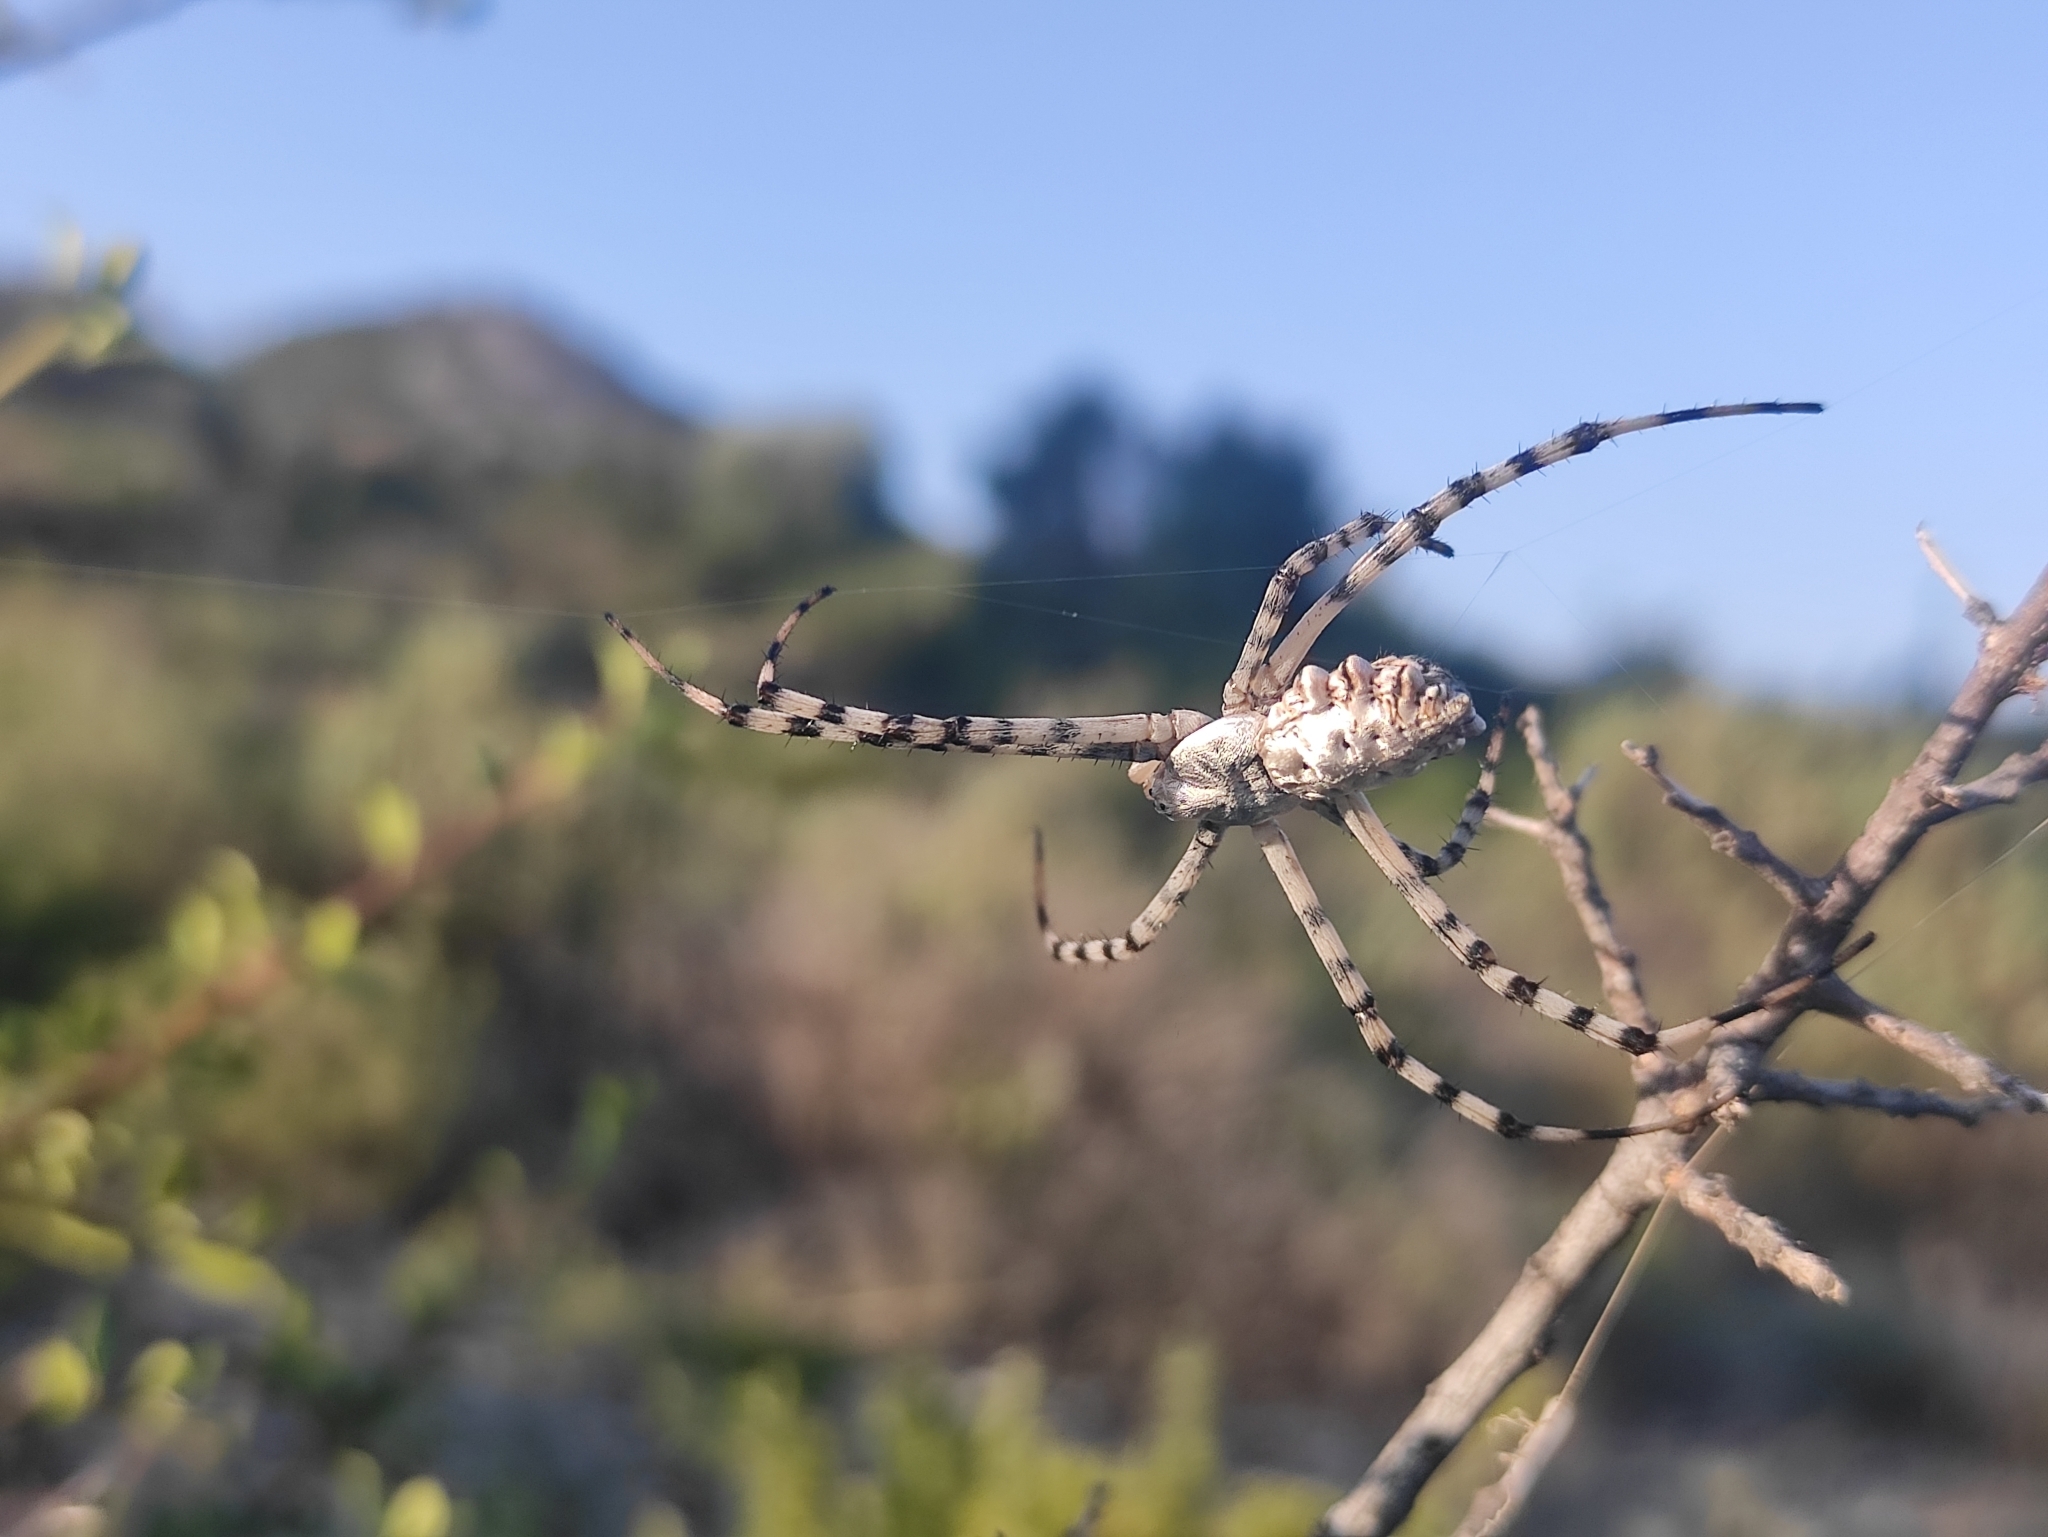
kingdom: Animalia
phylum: Arthropoda
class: Arachnida
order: Araneae
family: Araneidae
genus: Argiope
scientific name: Argiope lobata
